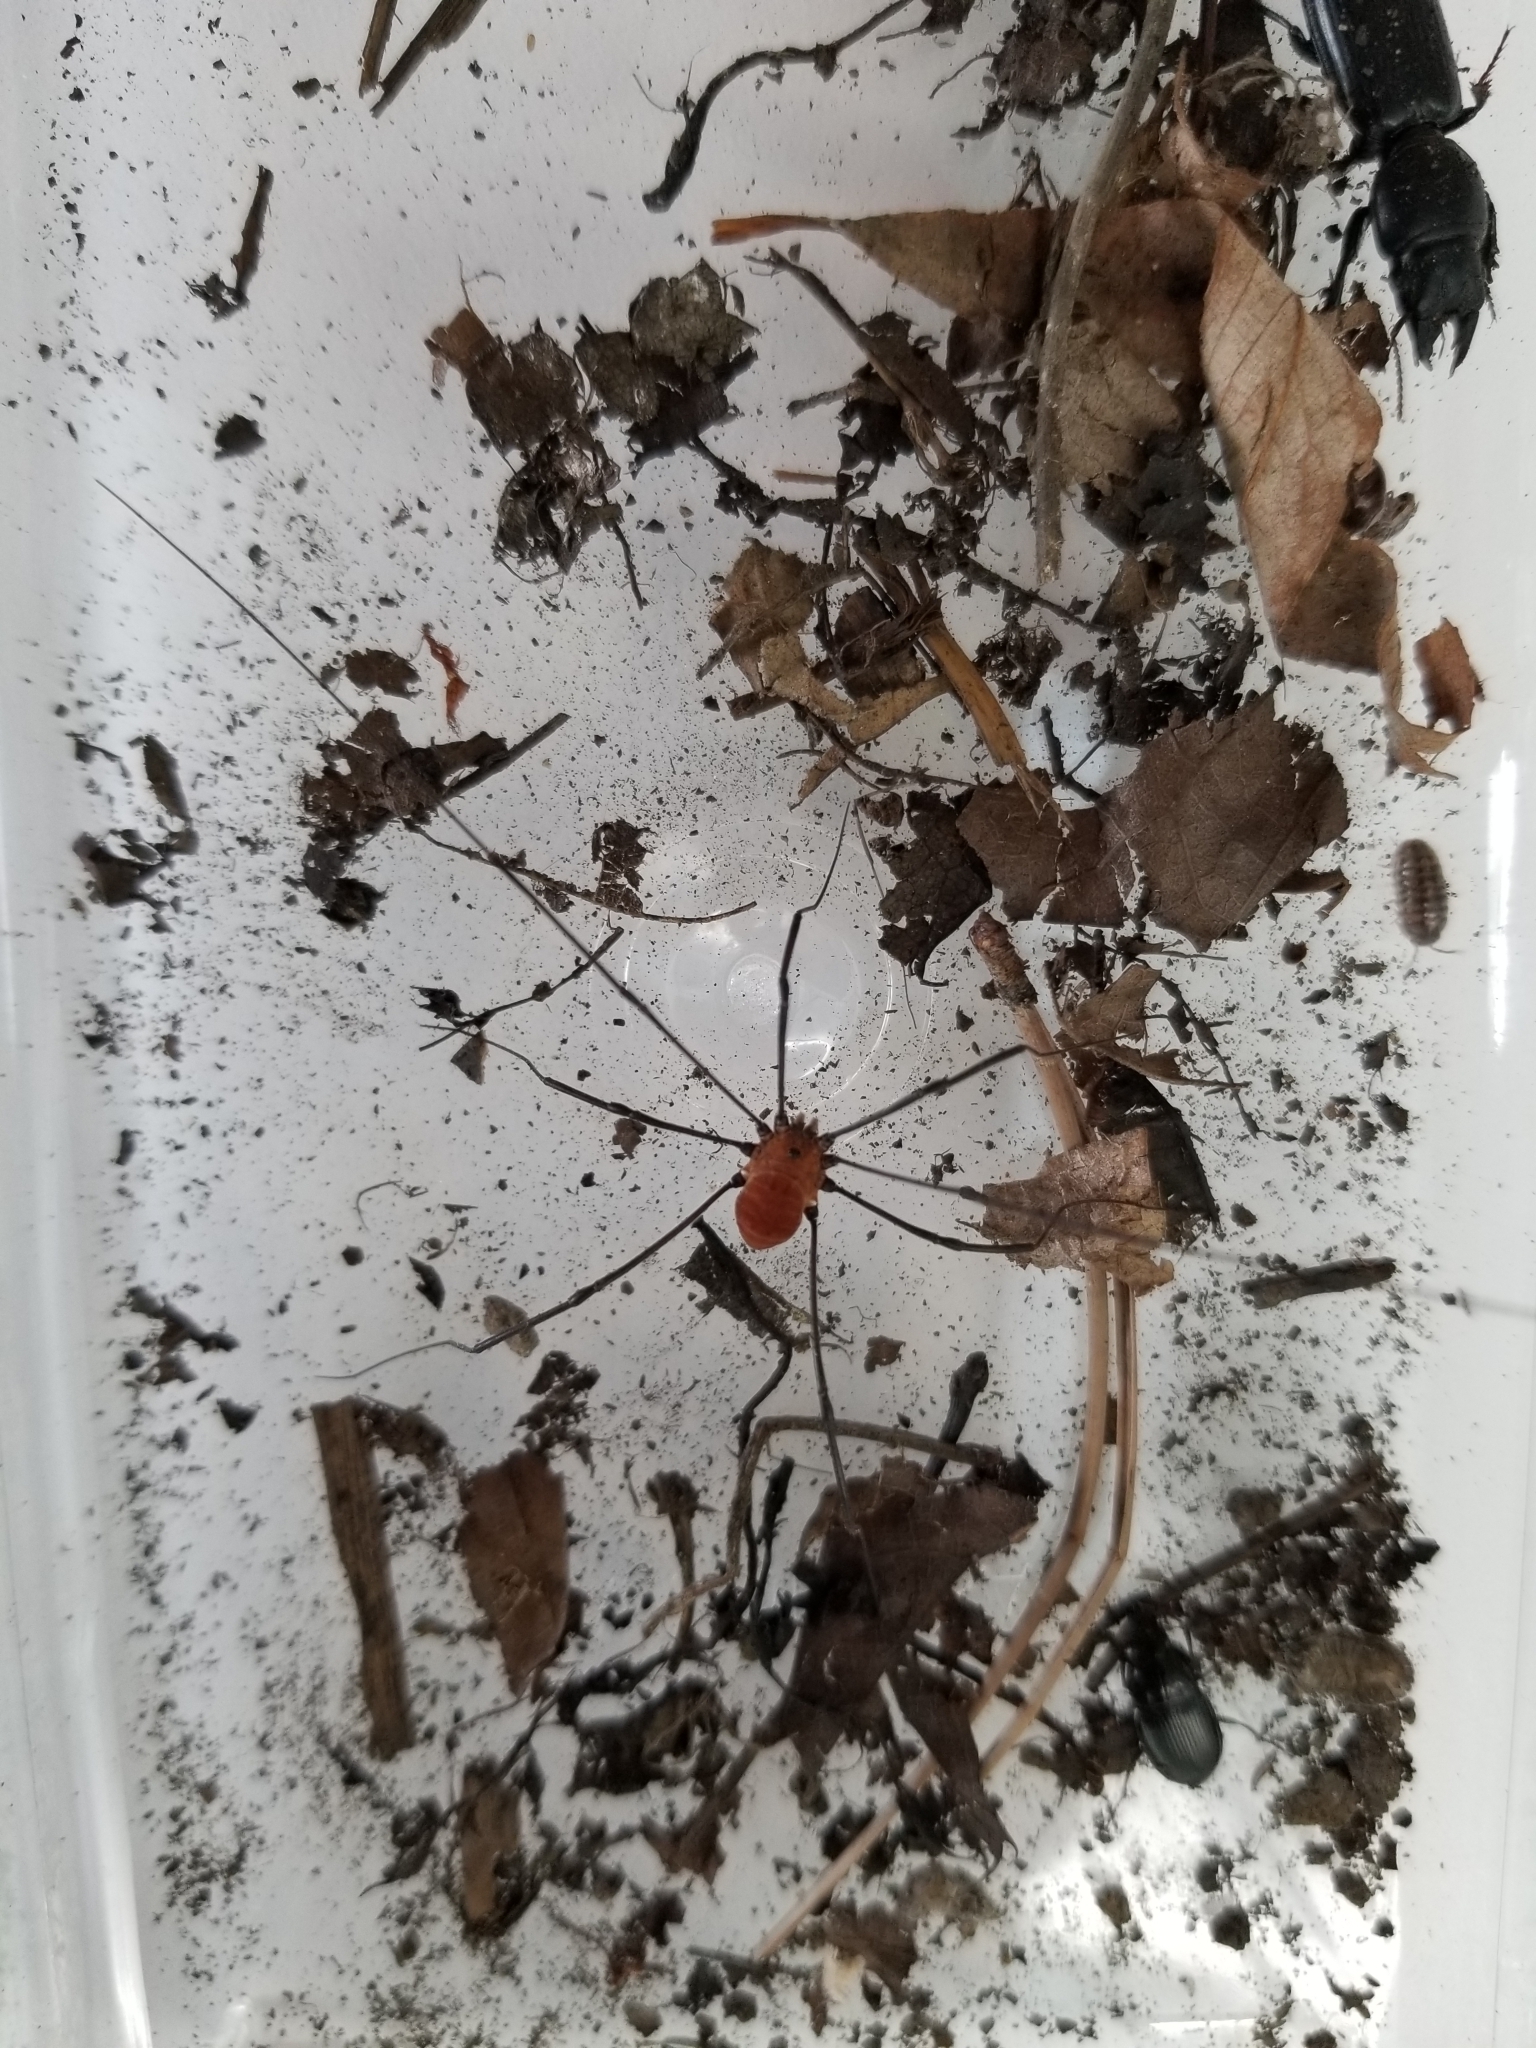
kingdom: Animalia
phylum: Arthropoda
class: Arachnida
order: Opiliones
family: Sclerosomatidae
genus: Leiobunum
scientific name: Leiobunum verrucosum
